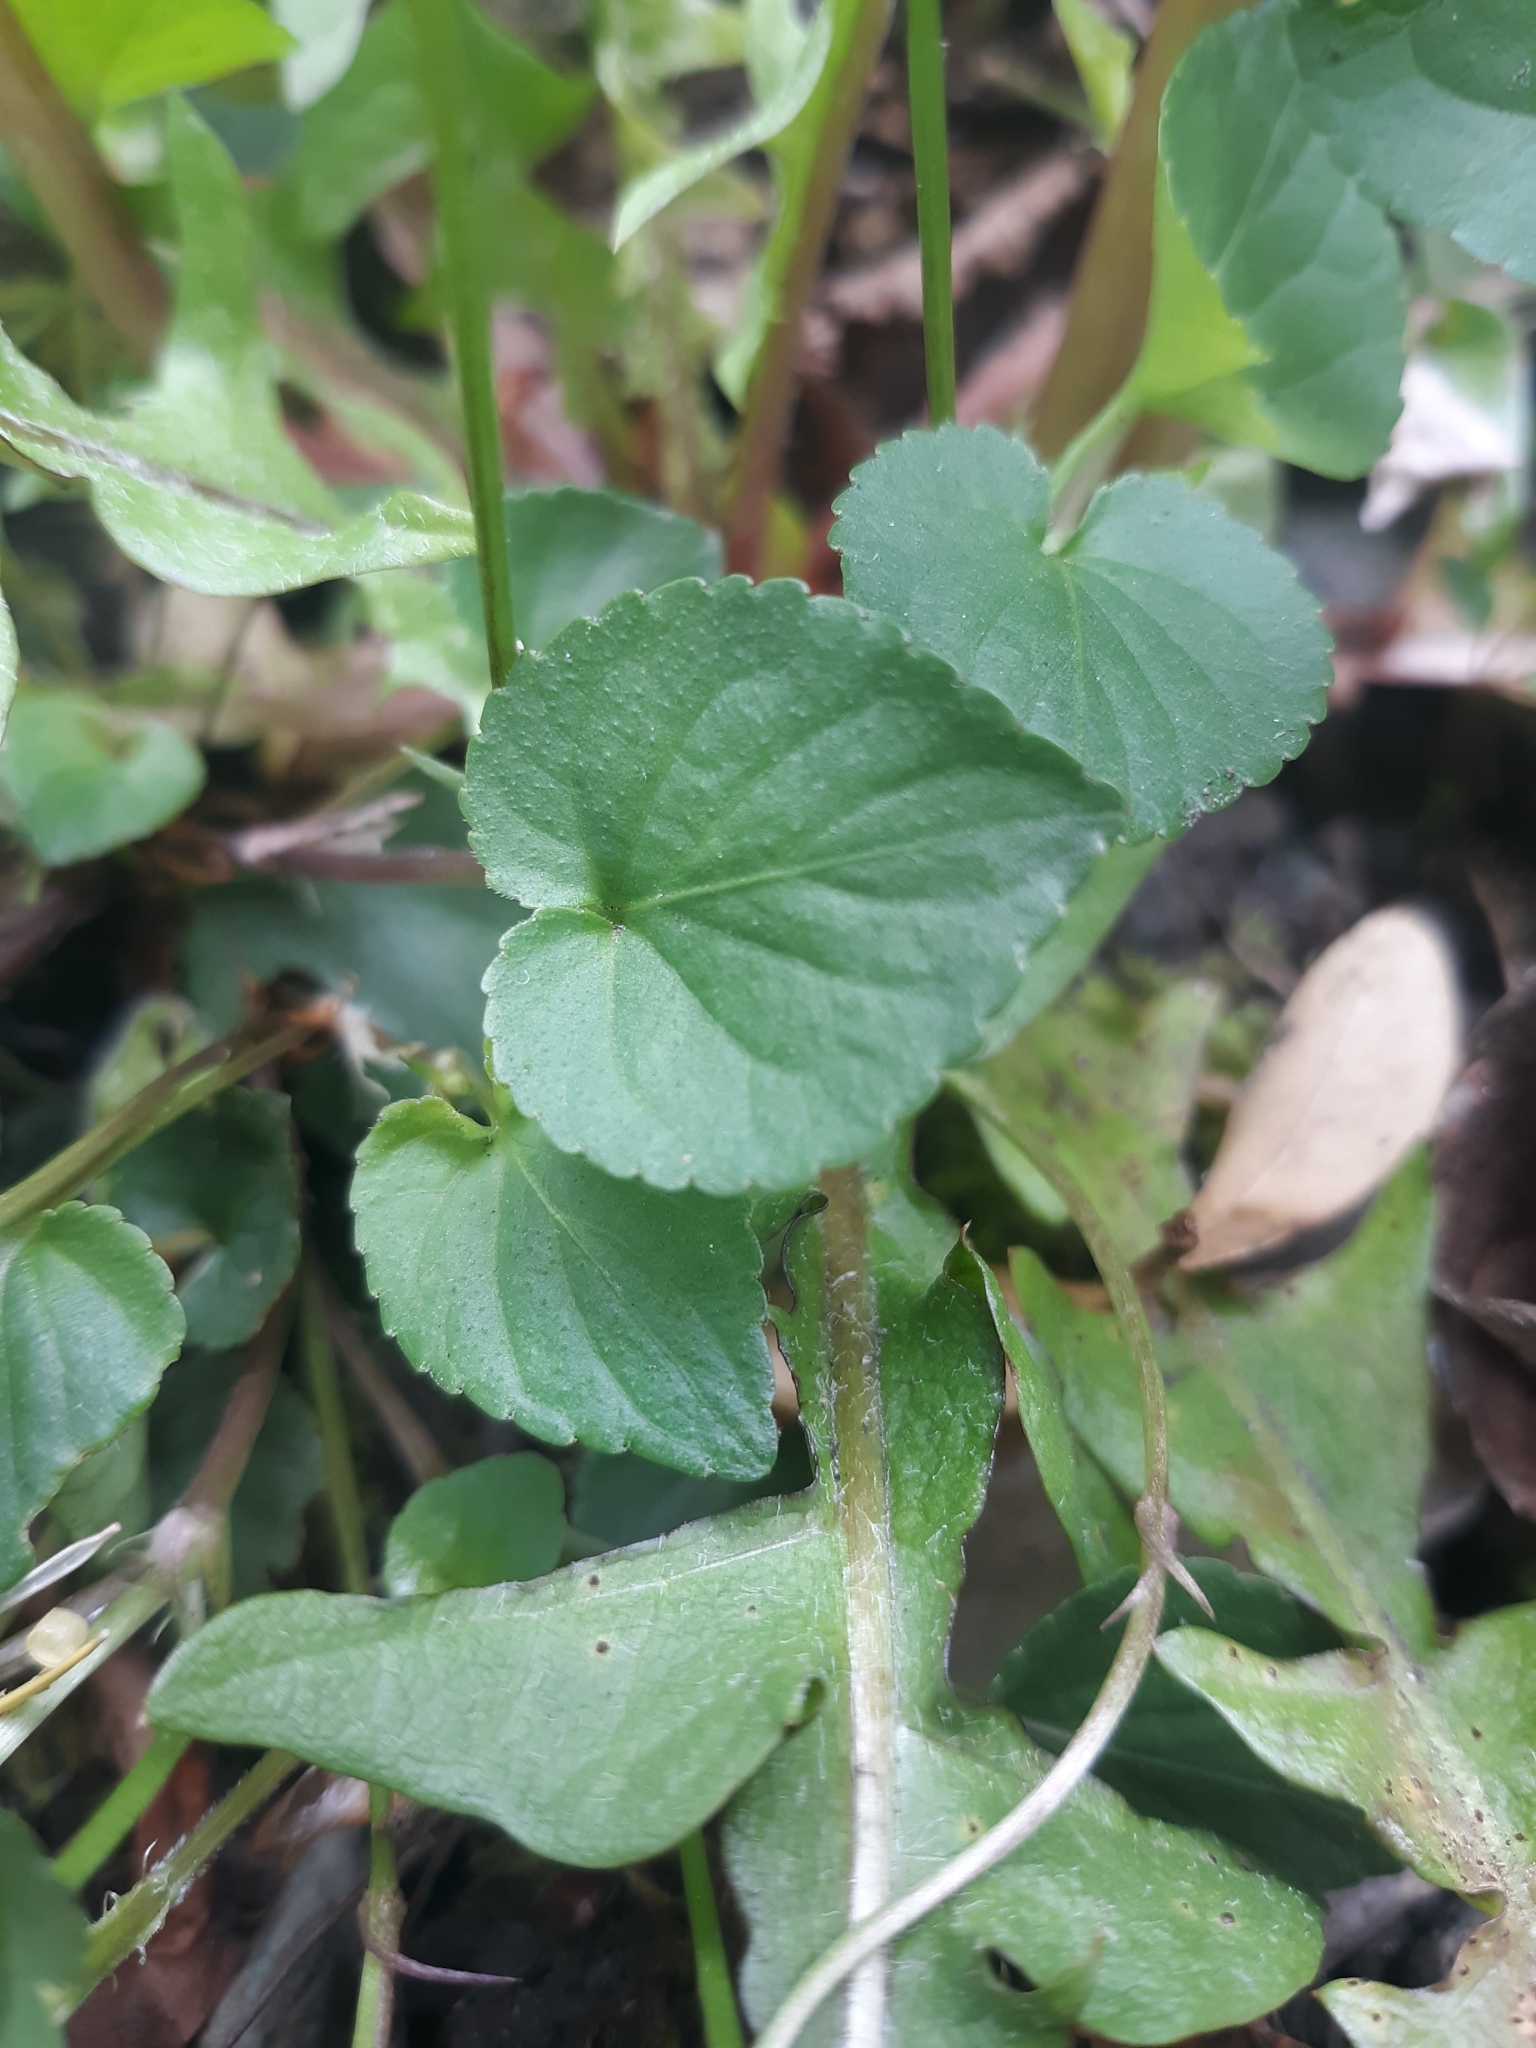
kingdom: Plantae
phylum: Tracheophyta
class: Magnoliopsida
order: Malpighiales
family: Violaceae
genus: Viola
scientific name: Viola riviniana
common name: Common dog-violet
